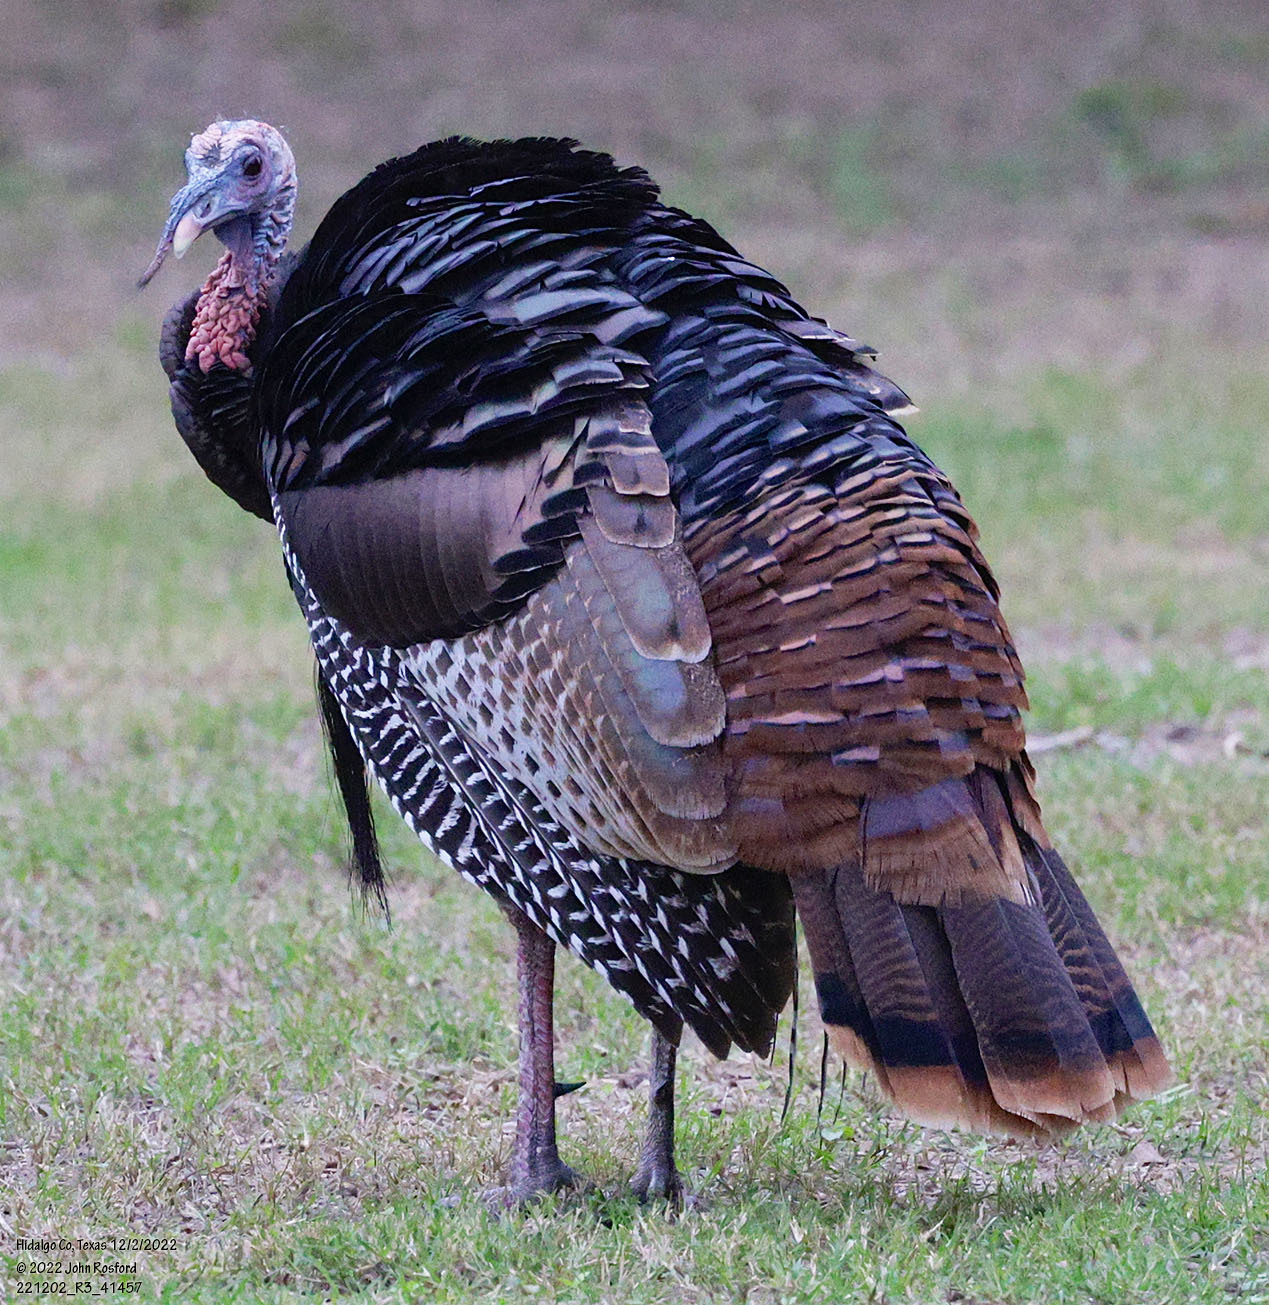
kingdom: Animalia
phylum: Chordata
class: Aves
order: Galliformes
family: Phasianidae
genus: Meleagris
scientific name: Meleagris gallopavo
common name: Wild turkey
